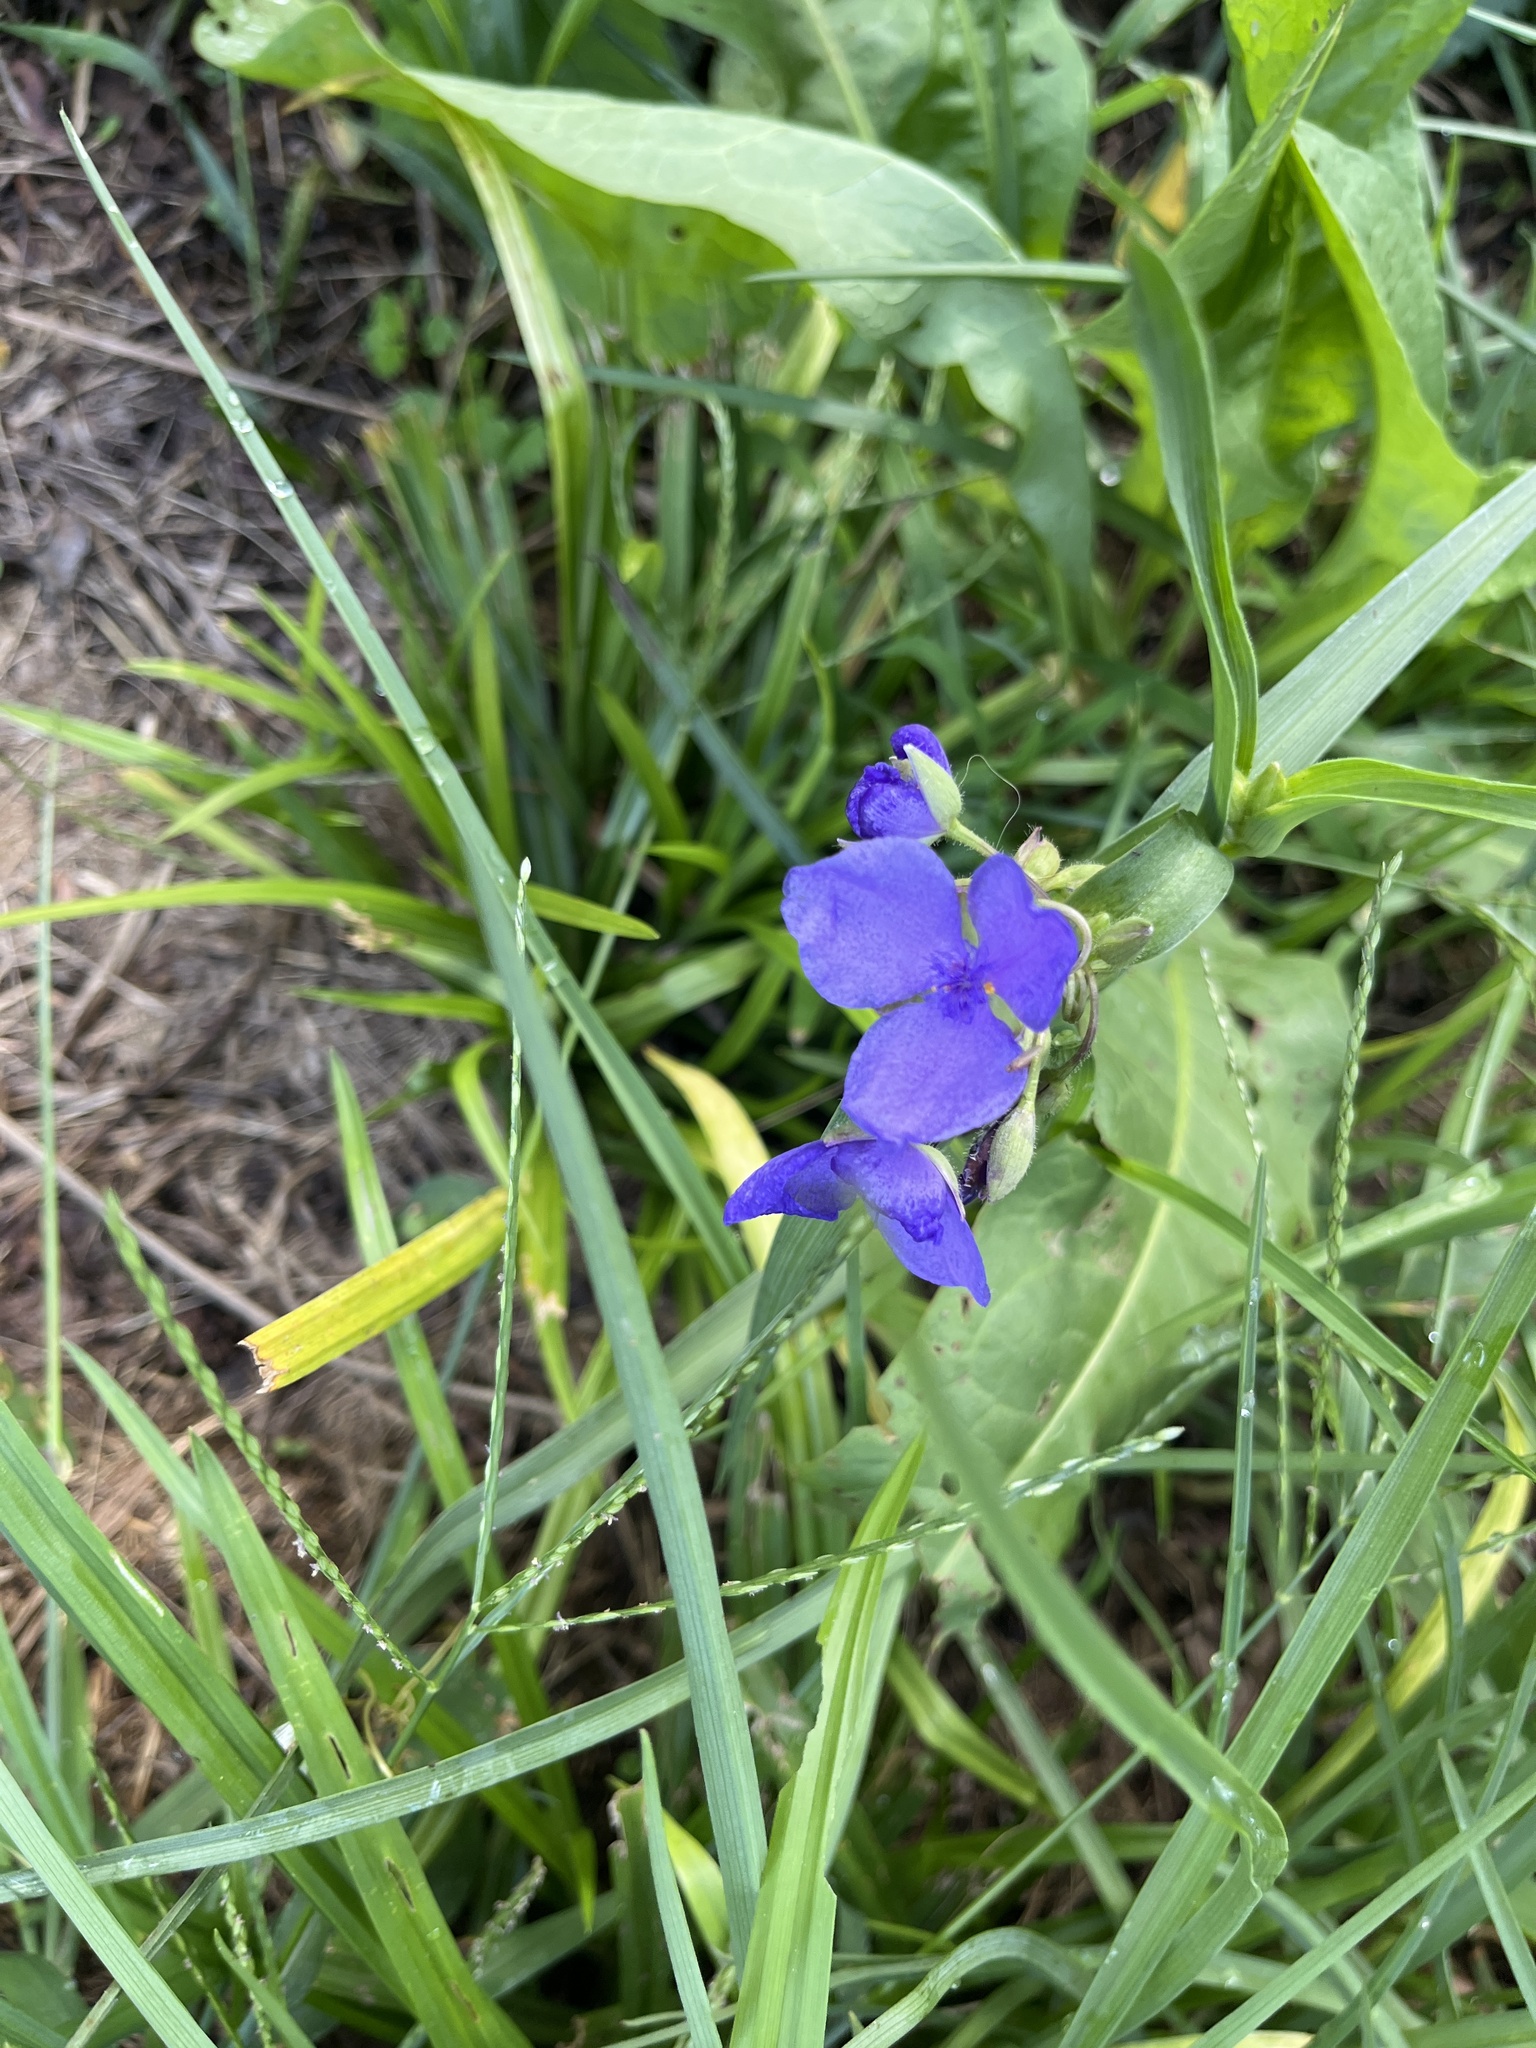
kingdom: Plantae
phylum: Tracheophyta
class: Liliopsida
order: Commelinales
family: Commelinaceae
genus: Tradescantia
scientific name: Tradescantia ohiensis
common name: Ohio spiderwort
